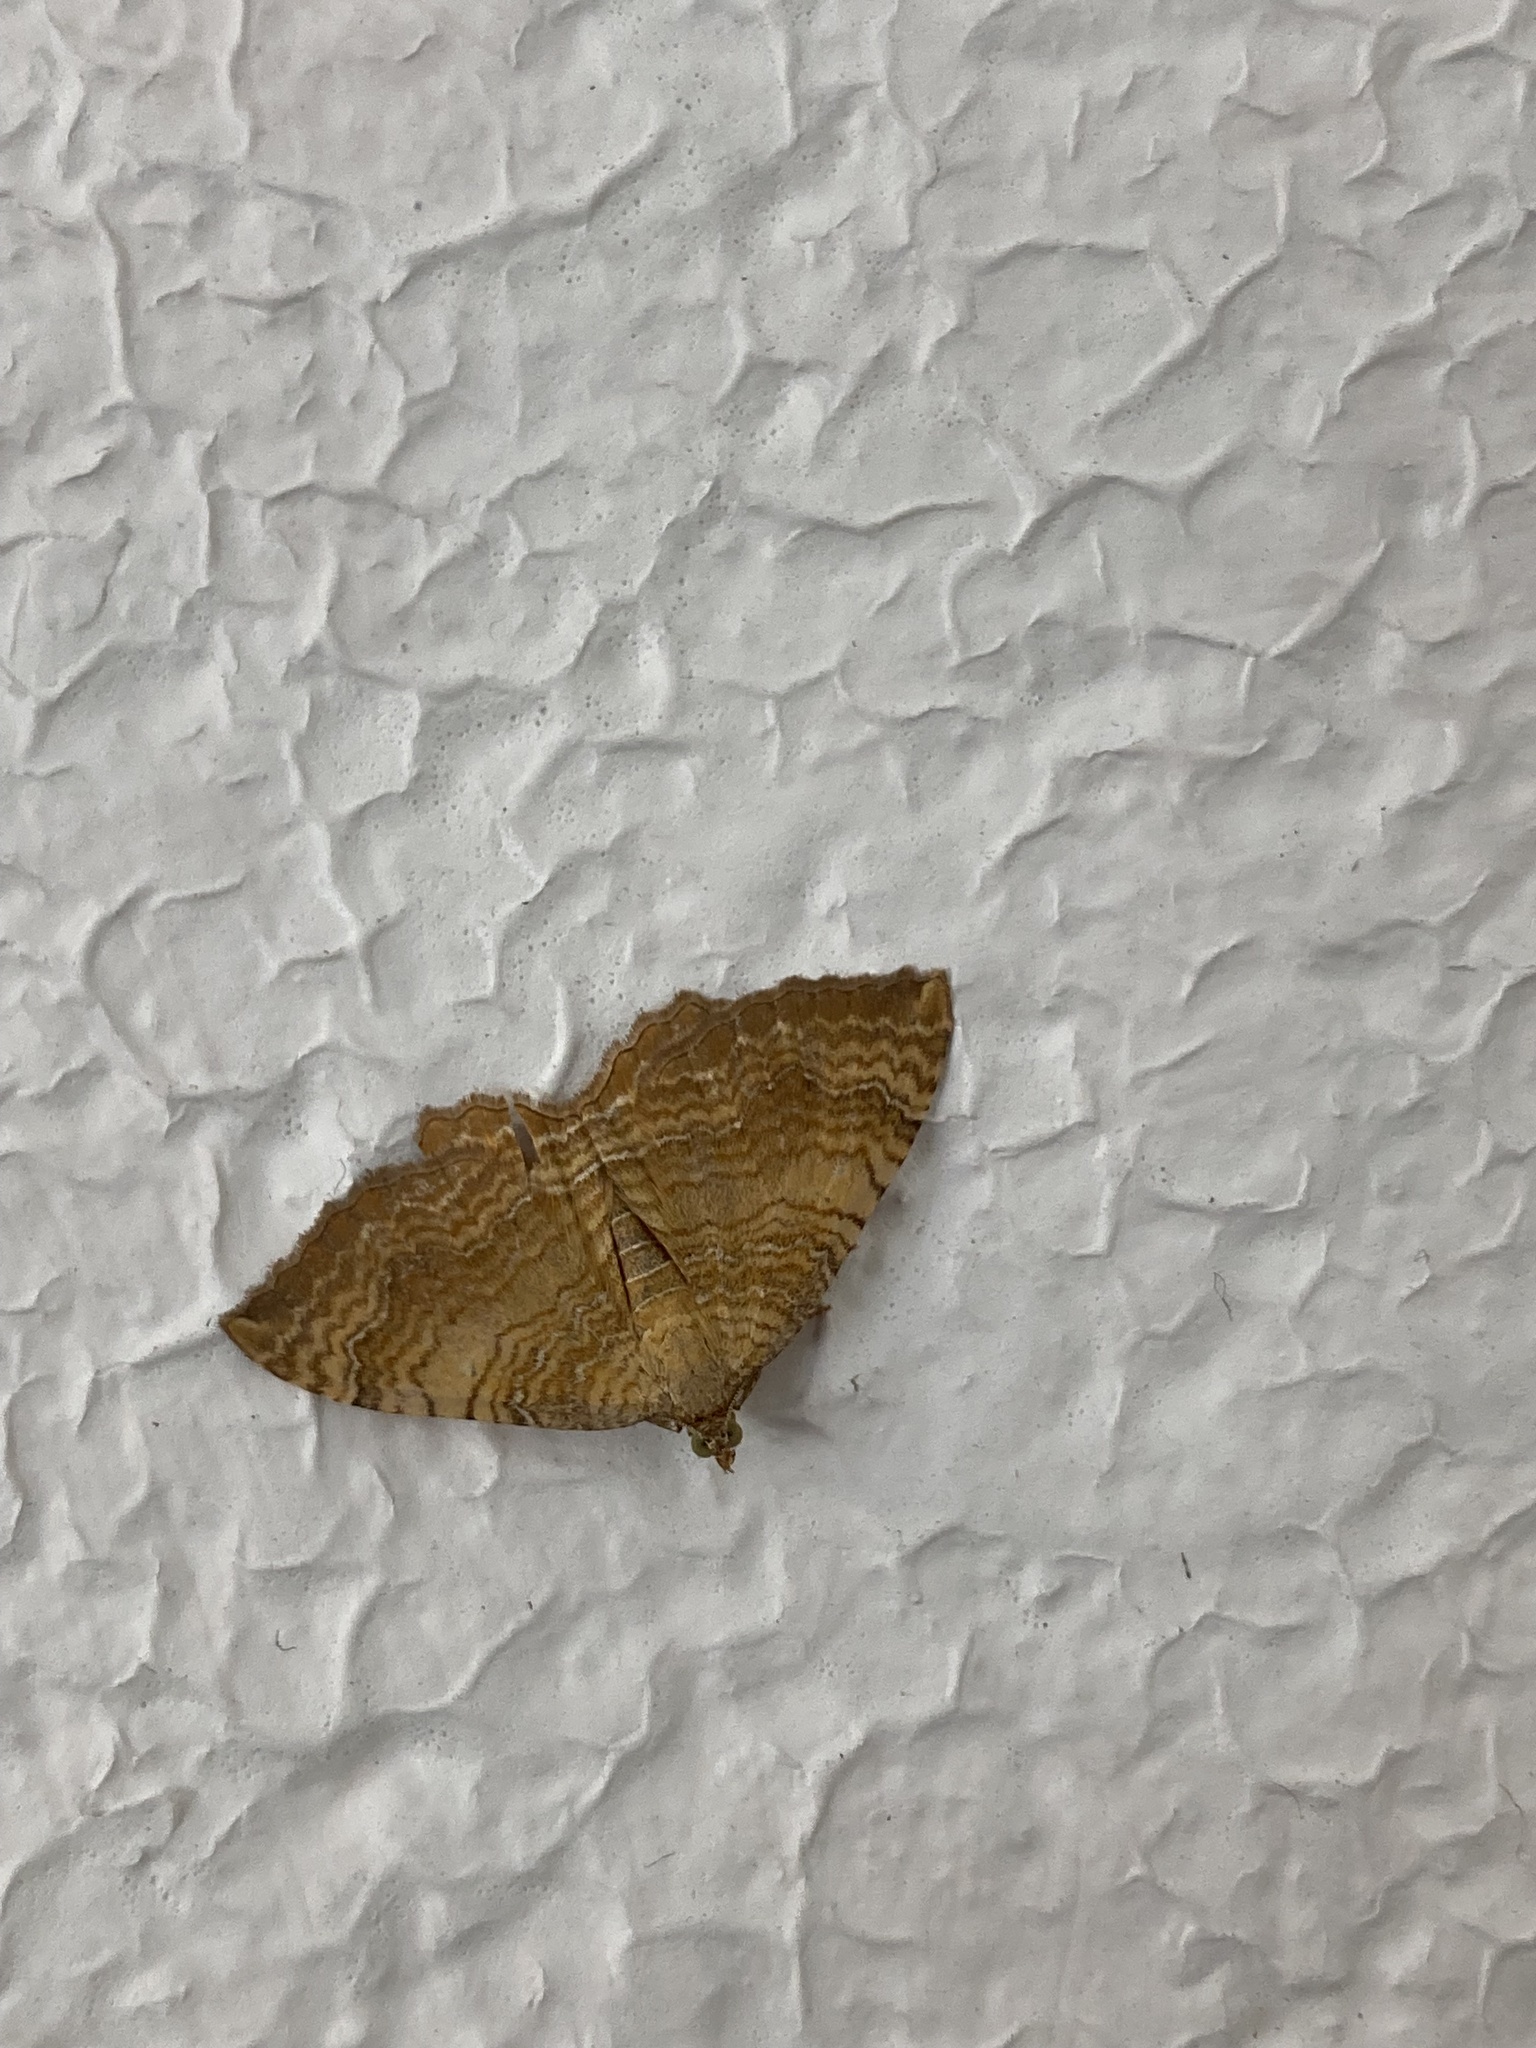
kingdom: Animalia
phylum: Arthropoda
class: Insecta
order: Lepidoptera
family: Geometridae
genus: Camptogramma
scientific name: Camptogramma bilineata
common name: Yellow shell
